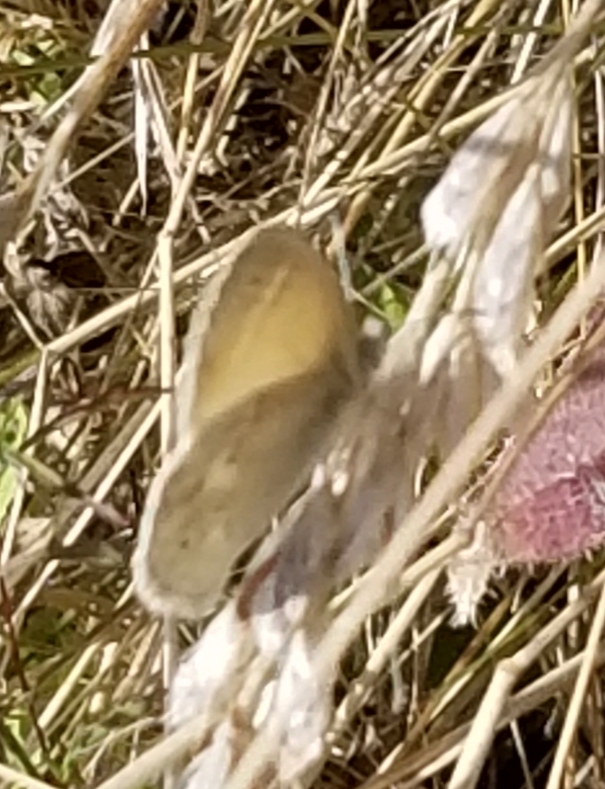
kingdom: Animalia
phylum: Arthropoda
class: Insecta
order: Lepidoptera
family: Nymphalidae
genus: Coenonympha
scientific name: Coenonympha california
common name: Common ringlet
